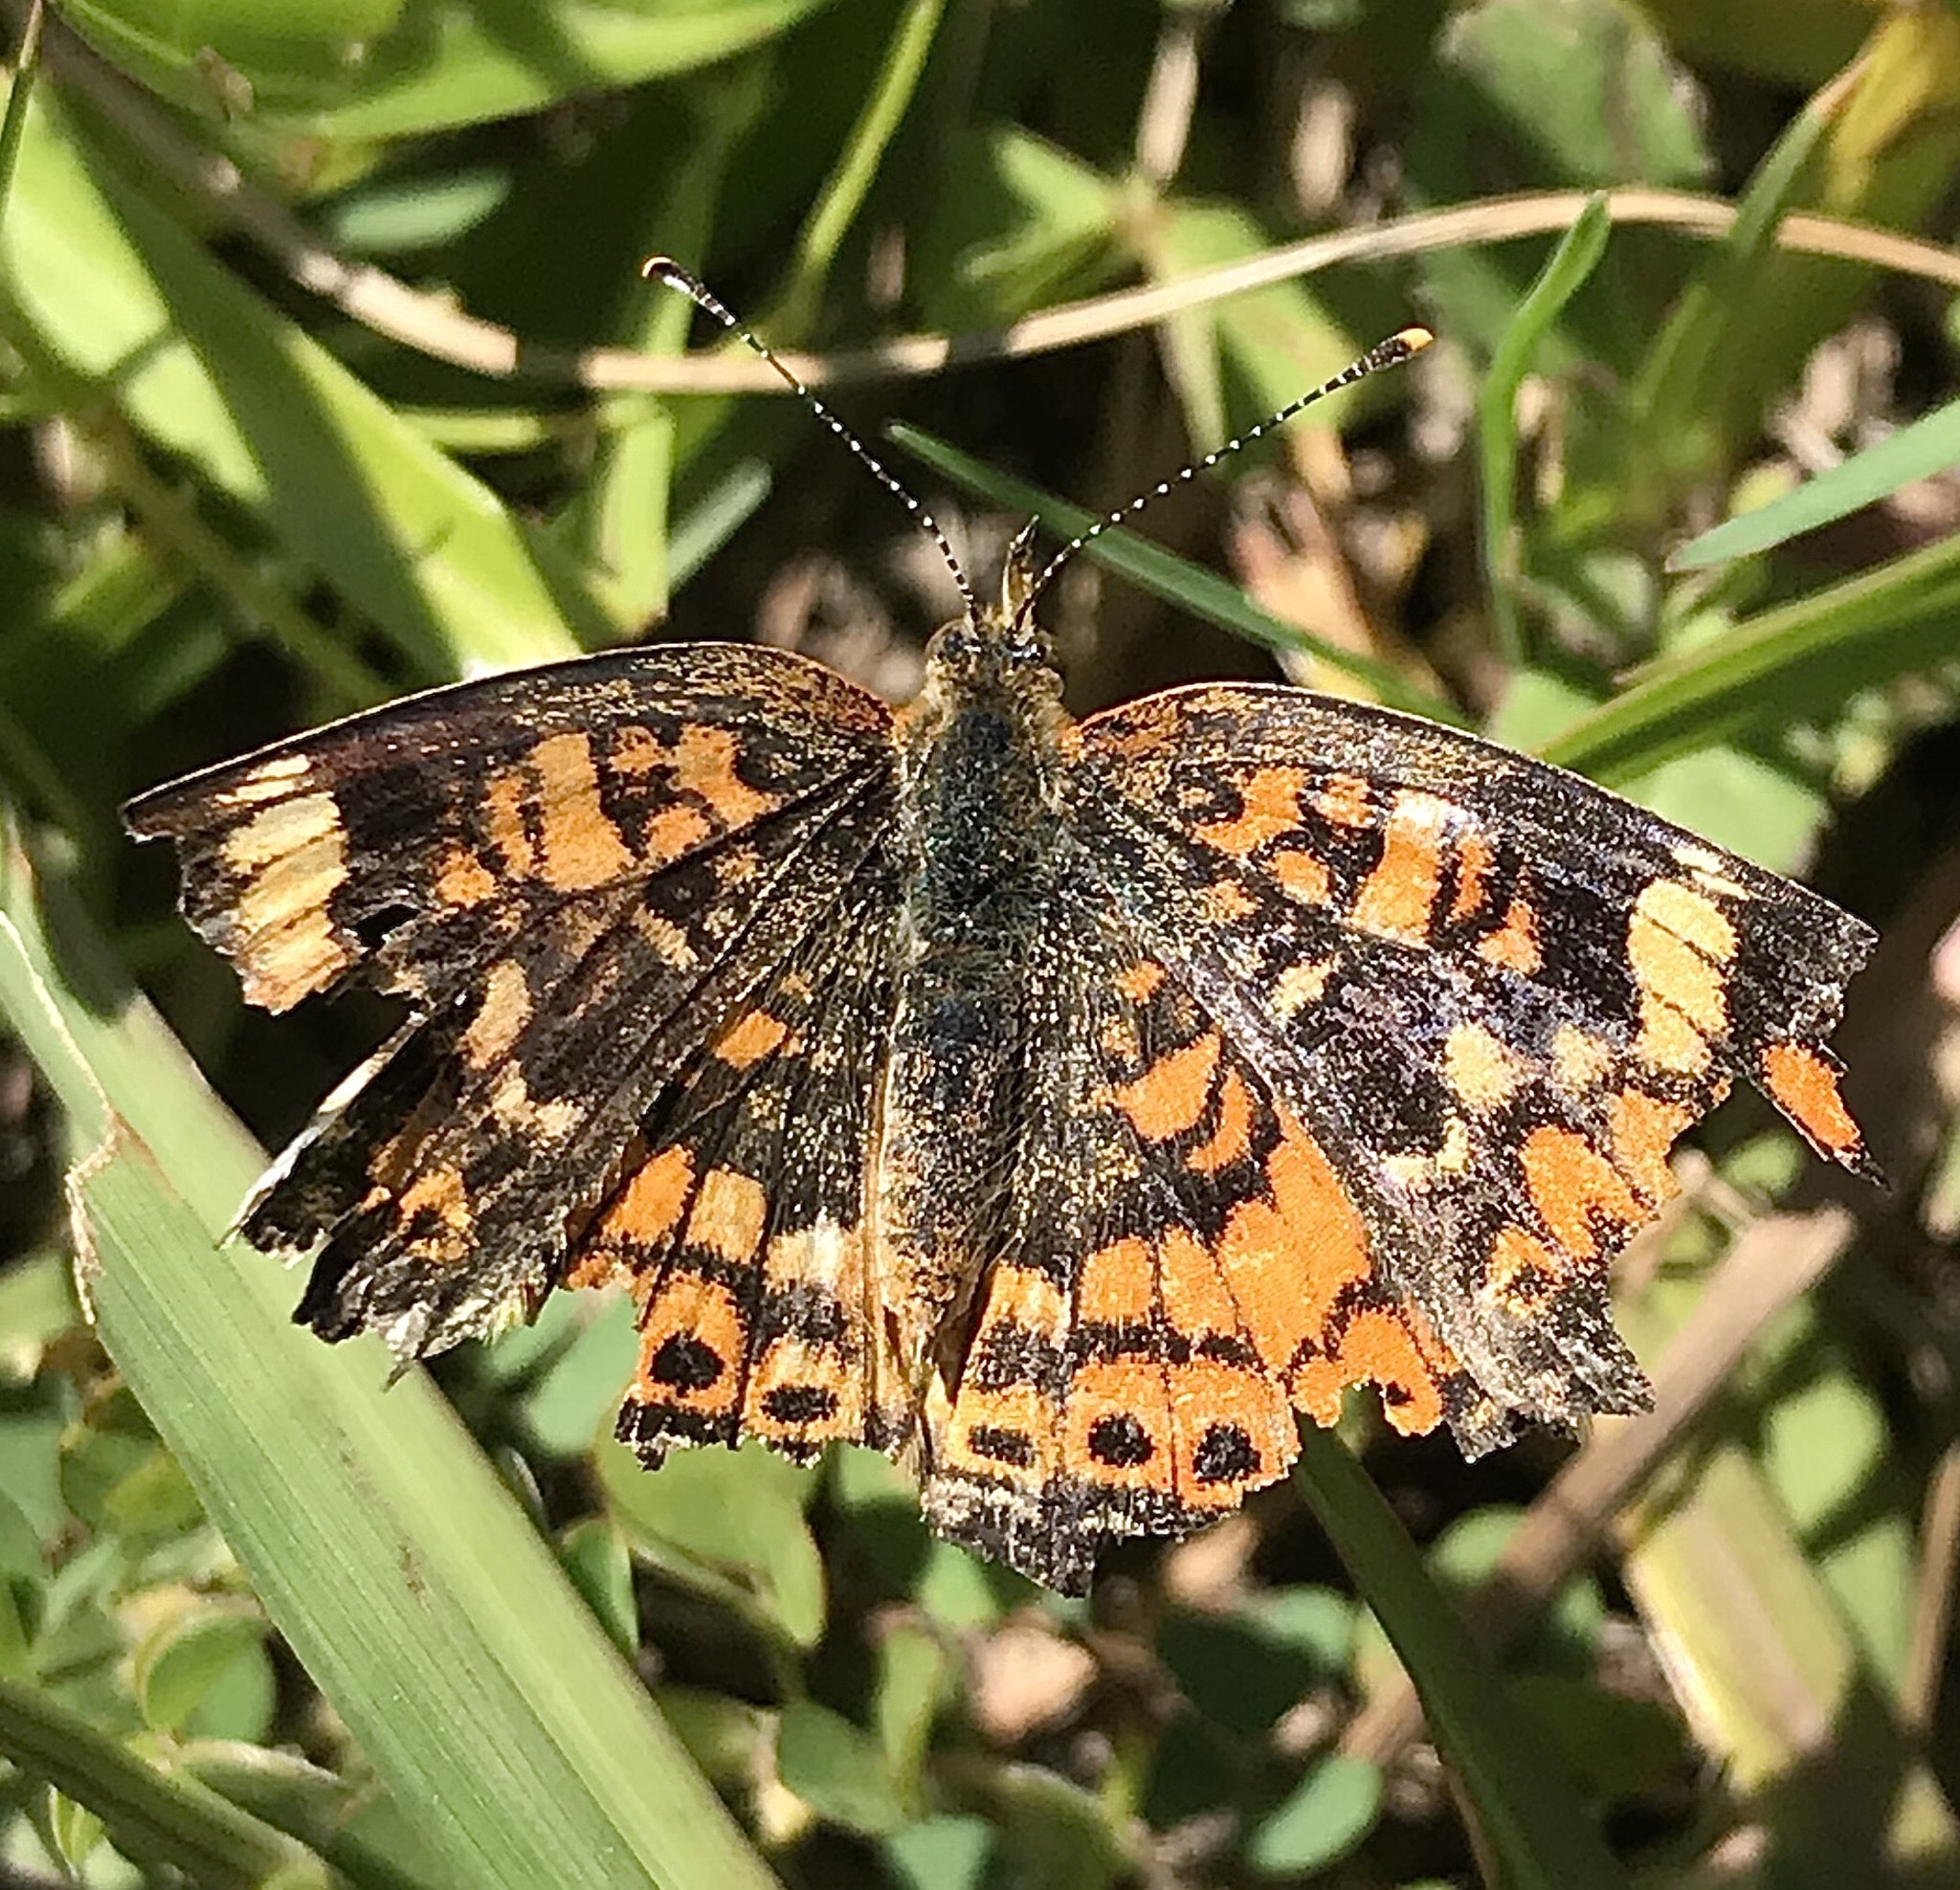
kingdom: Animalia
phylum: Arthropoda
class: Insecta
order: Lepidoptera
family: Nymphalidae
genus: Phyciodes
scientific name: Phyciodes phaon
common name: Phaon crescent
